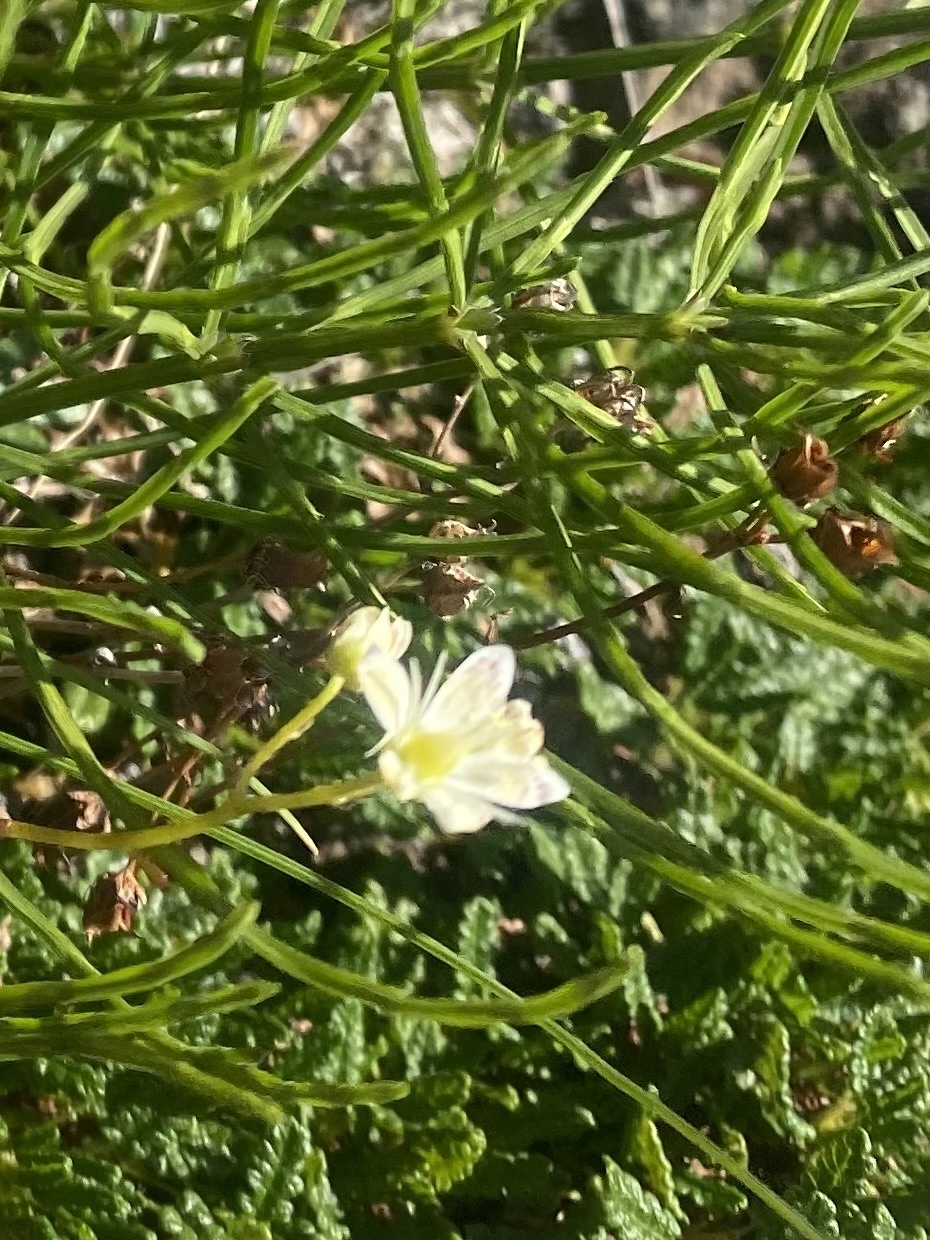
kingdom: Plantae
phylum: Tracheophyta
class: Magnoliopsida
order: Saxifragales
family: Saxifragaceae
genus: Saxifraga
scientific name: Saxifraga
